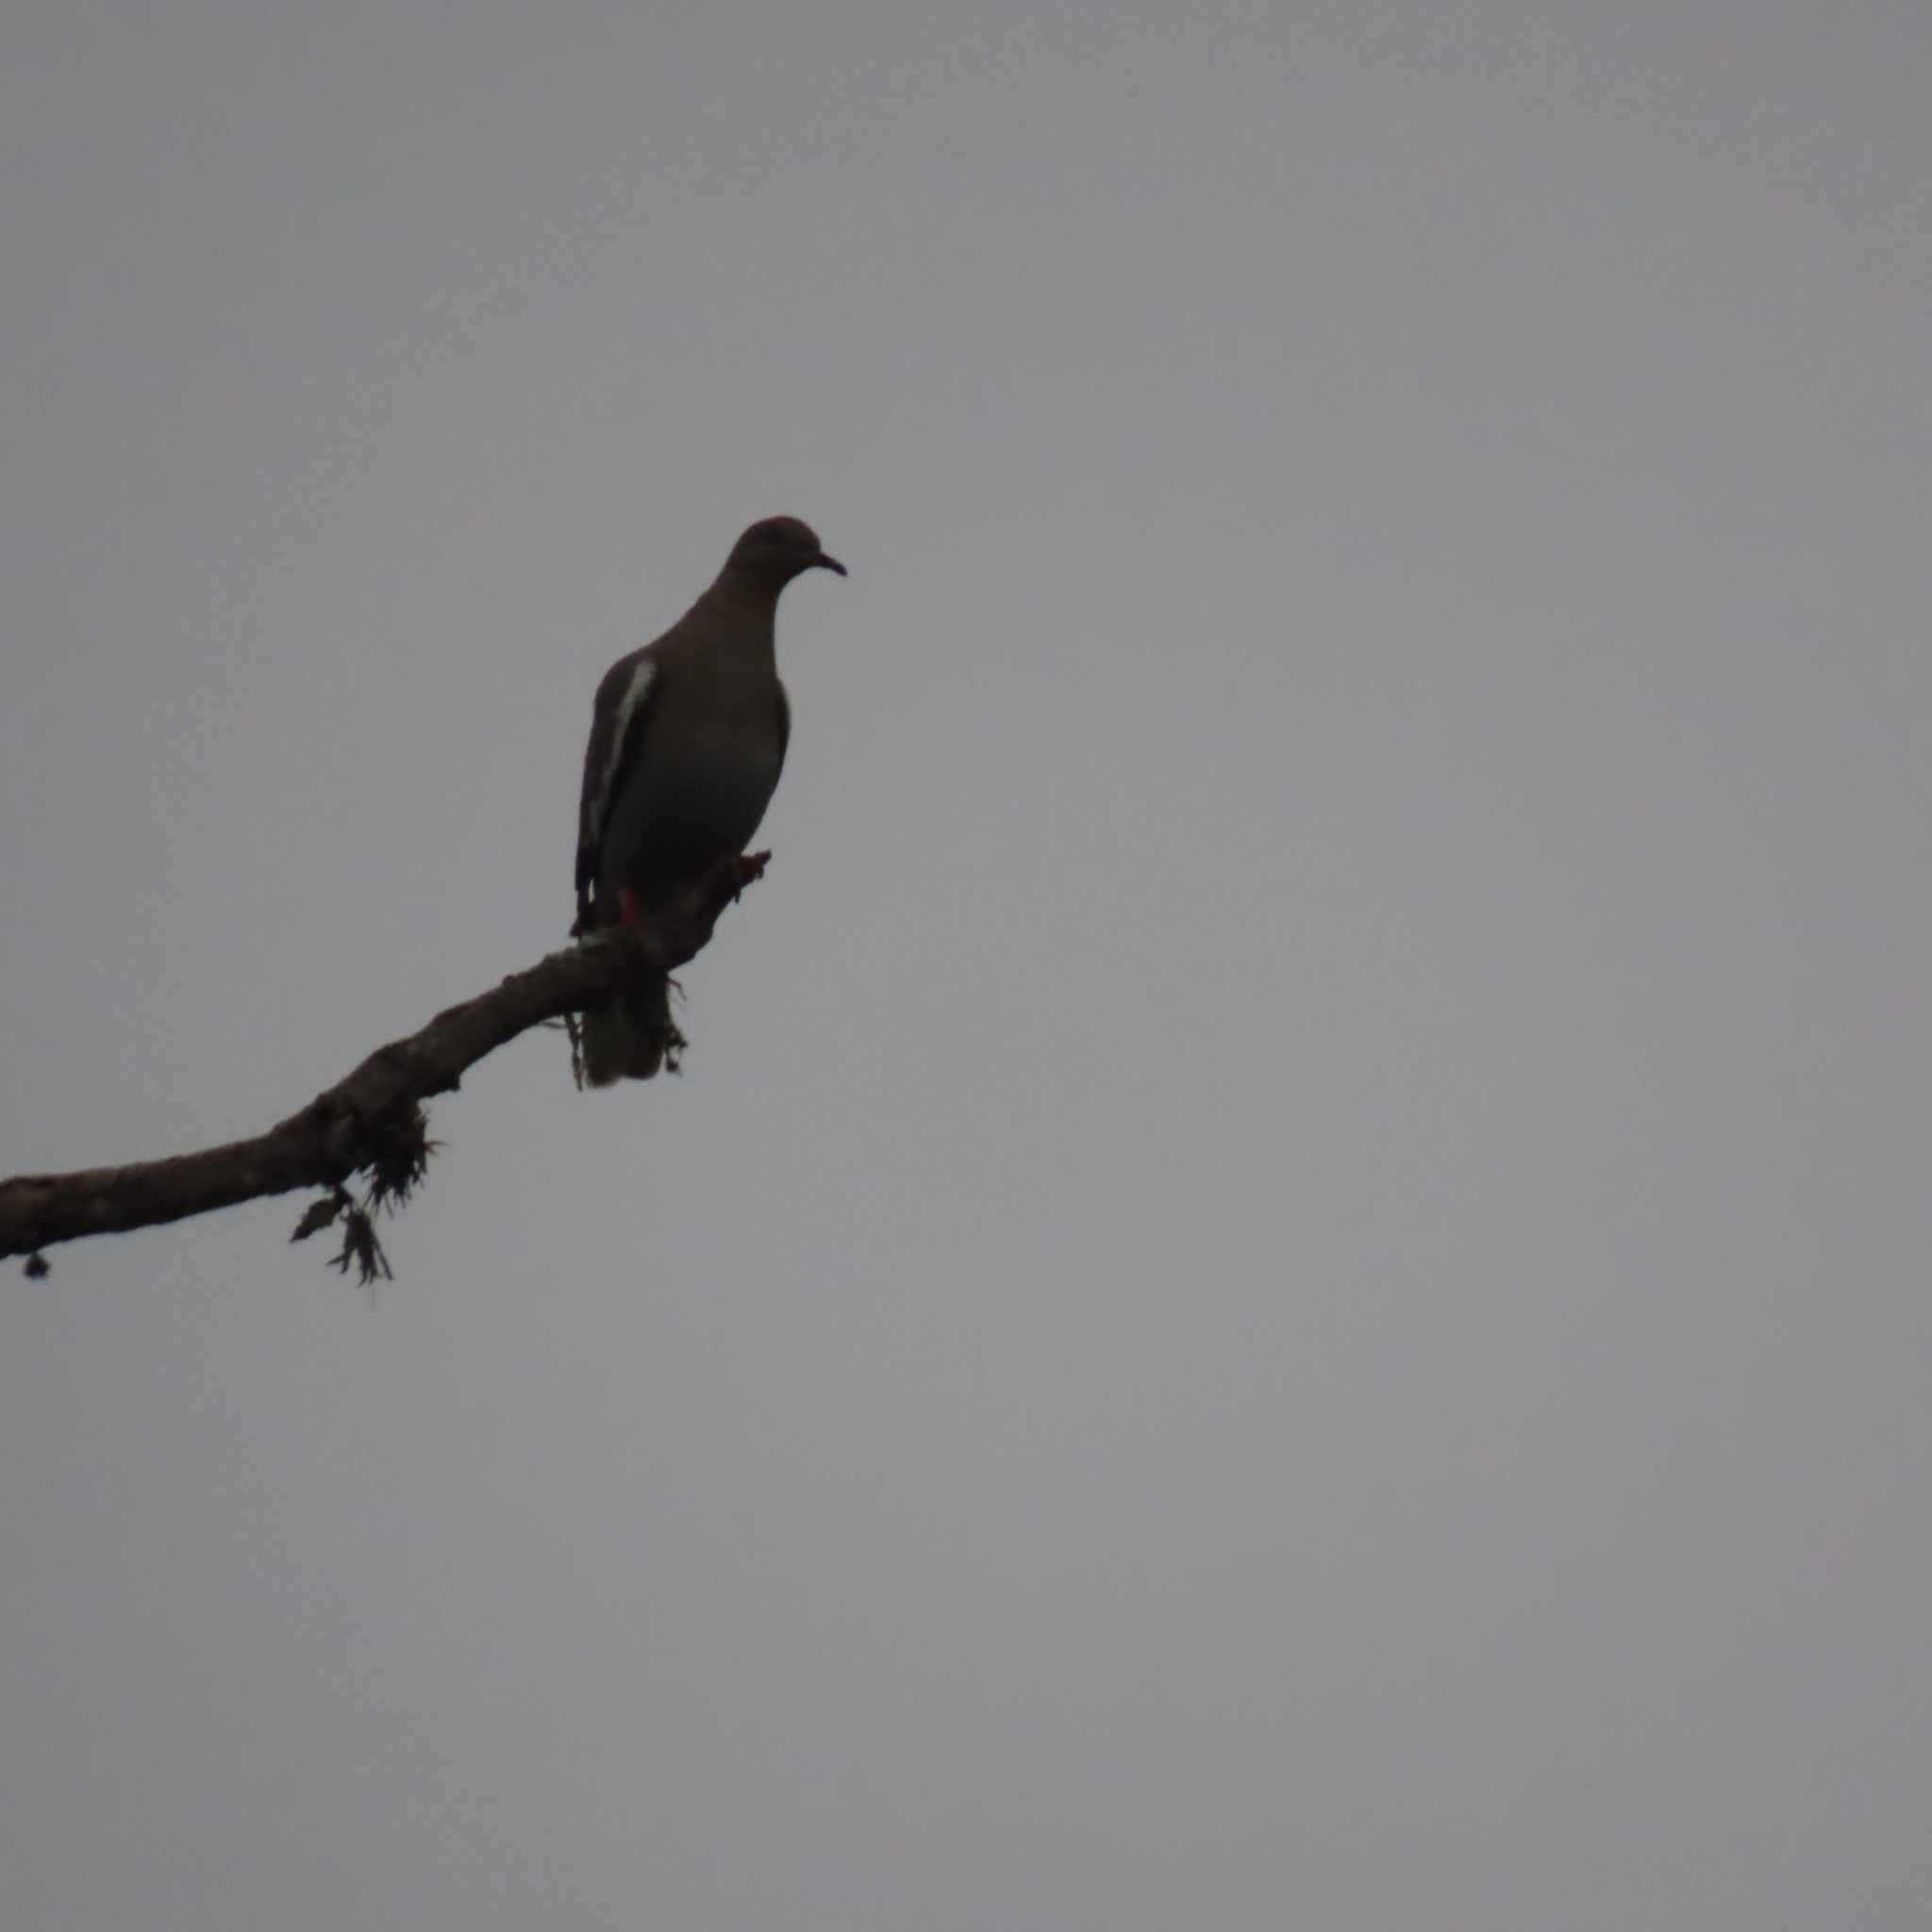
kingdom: Animalia
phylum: Chordata
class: Aves
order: Columbiformes
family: Columbidae
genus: Zenaida
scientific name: Zenaida asiatica
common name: White-winged dove
